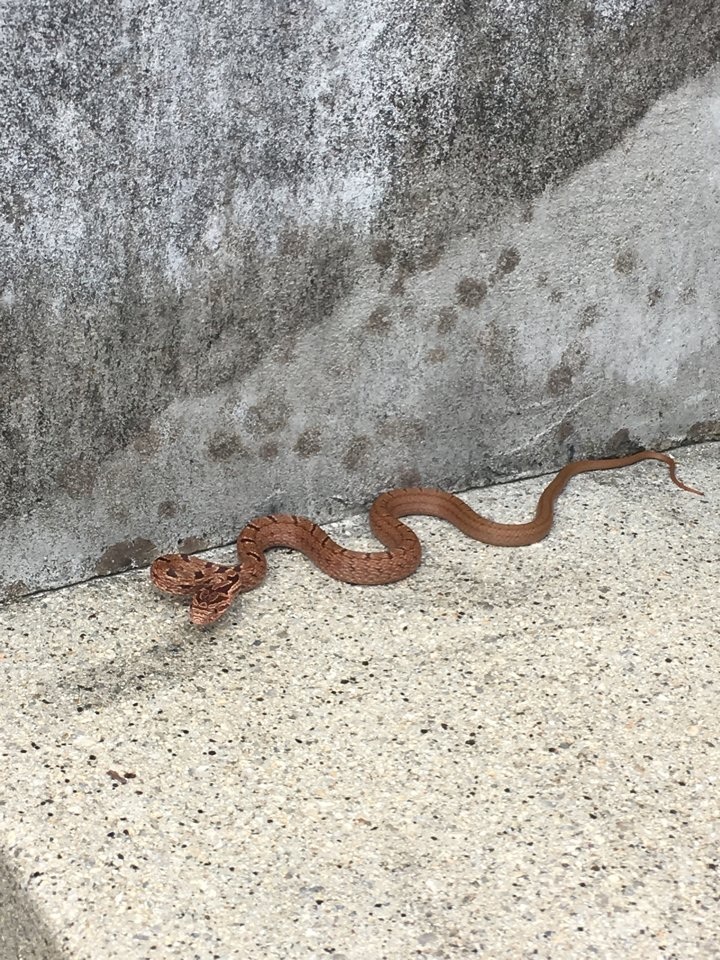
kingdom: Animalia
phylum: Chordata
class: Squamata
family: Colubridae
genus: Elaphe
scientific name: Elaphe quadrivirgata
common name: Japanese four-lined ratsnake
